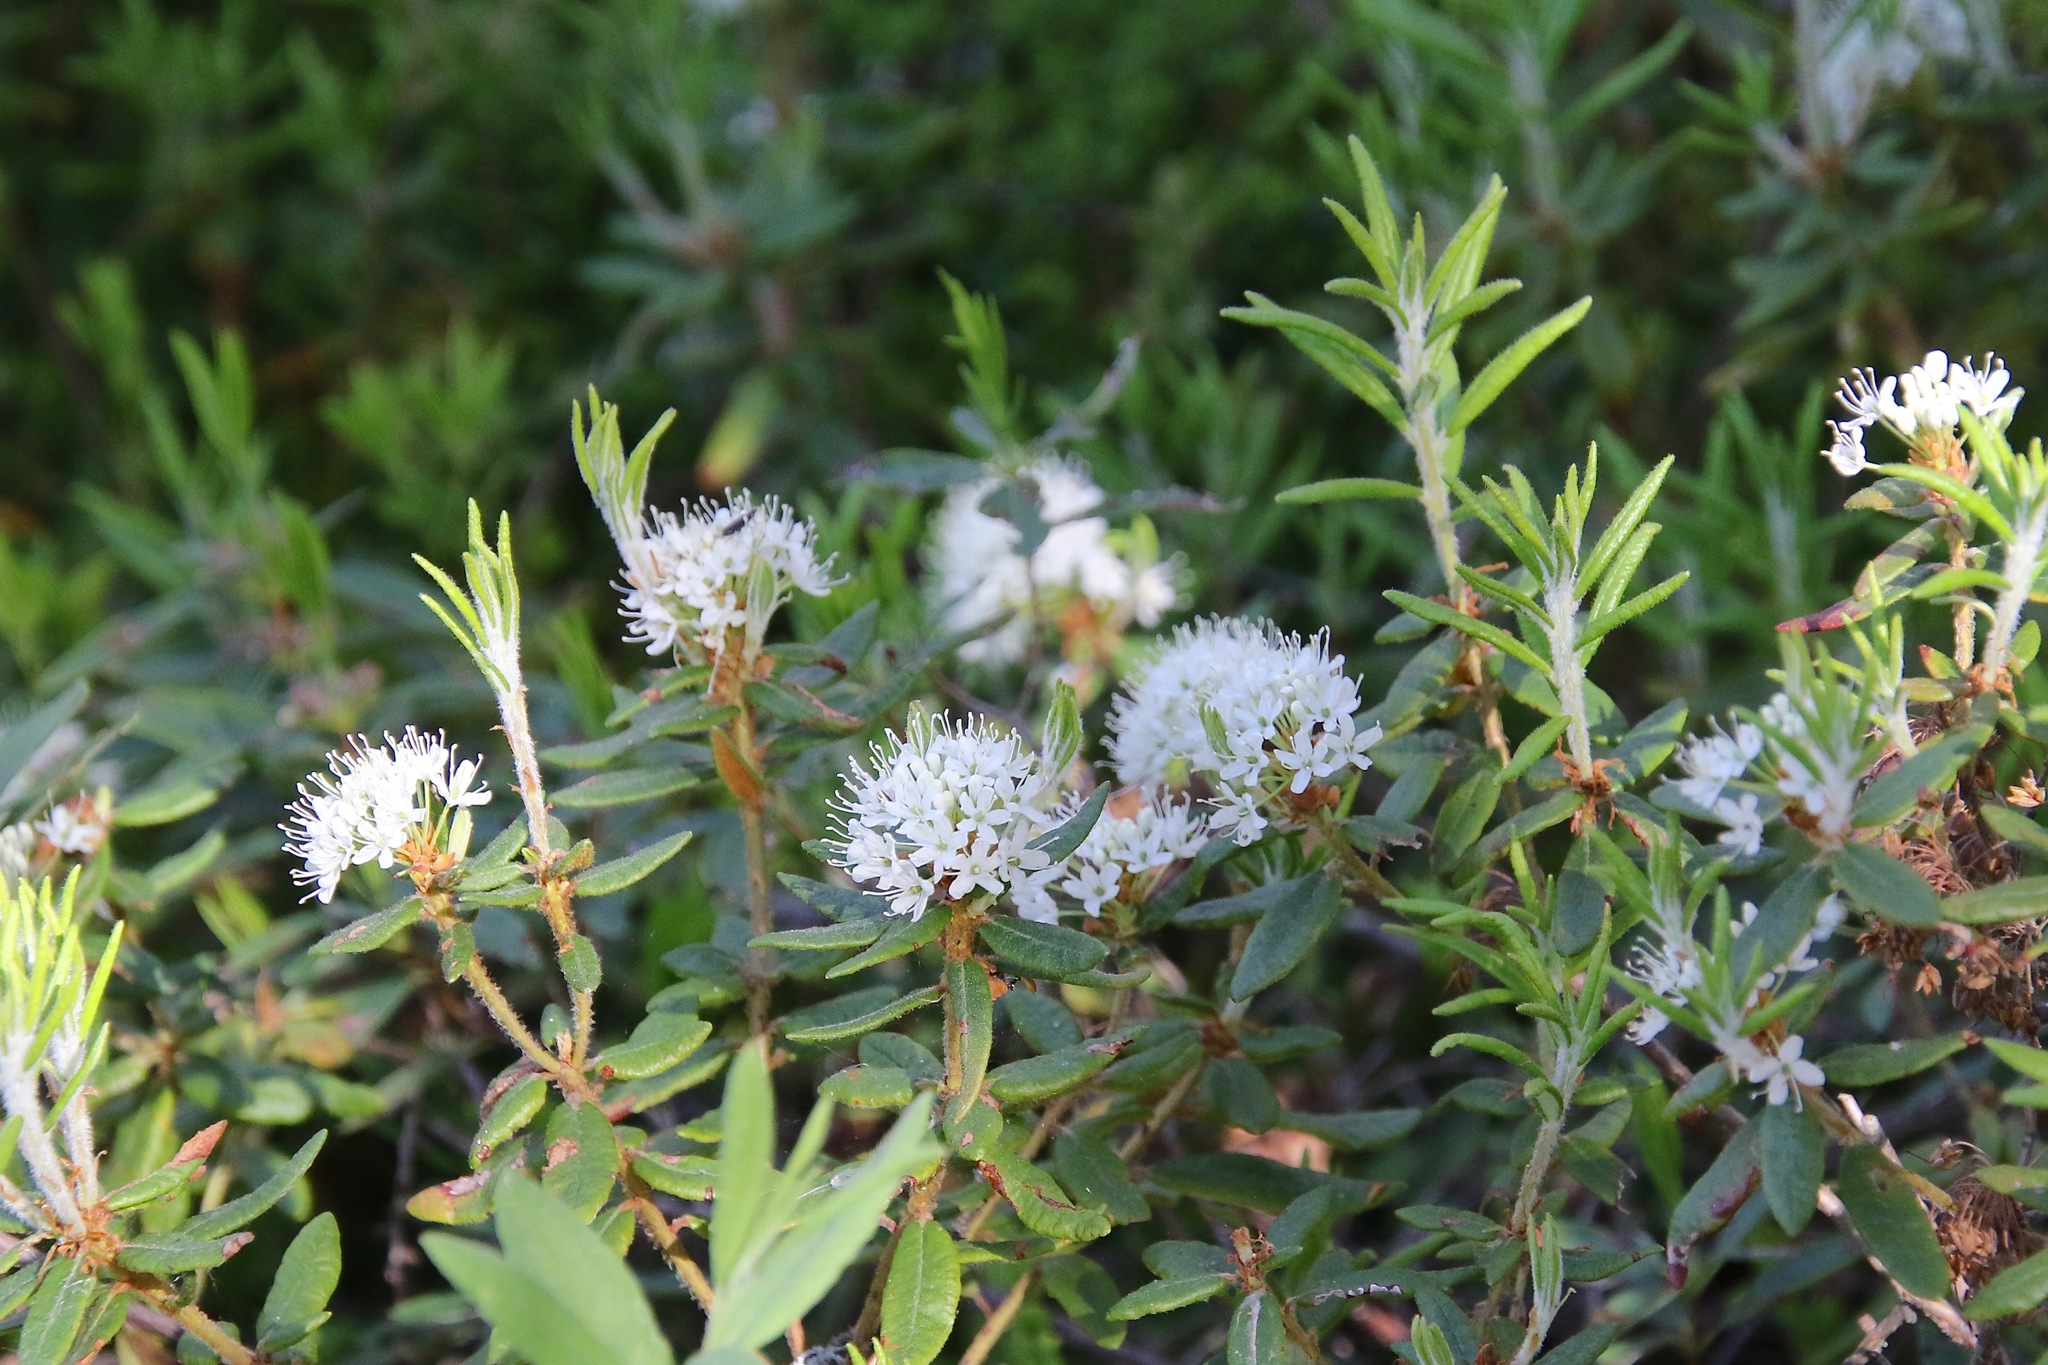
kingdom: Plantae
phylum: Tracheophyta
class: Magnoliopsida
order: Ericales
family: Ericaceae
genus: Rhododendron
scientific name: Rhododendron groenlandicum
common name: Bog labrador tea
